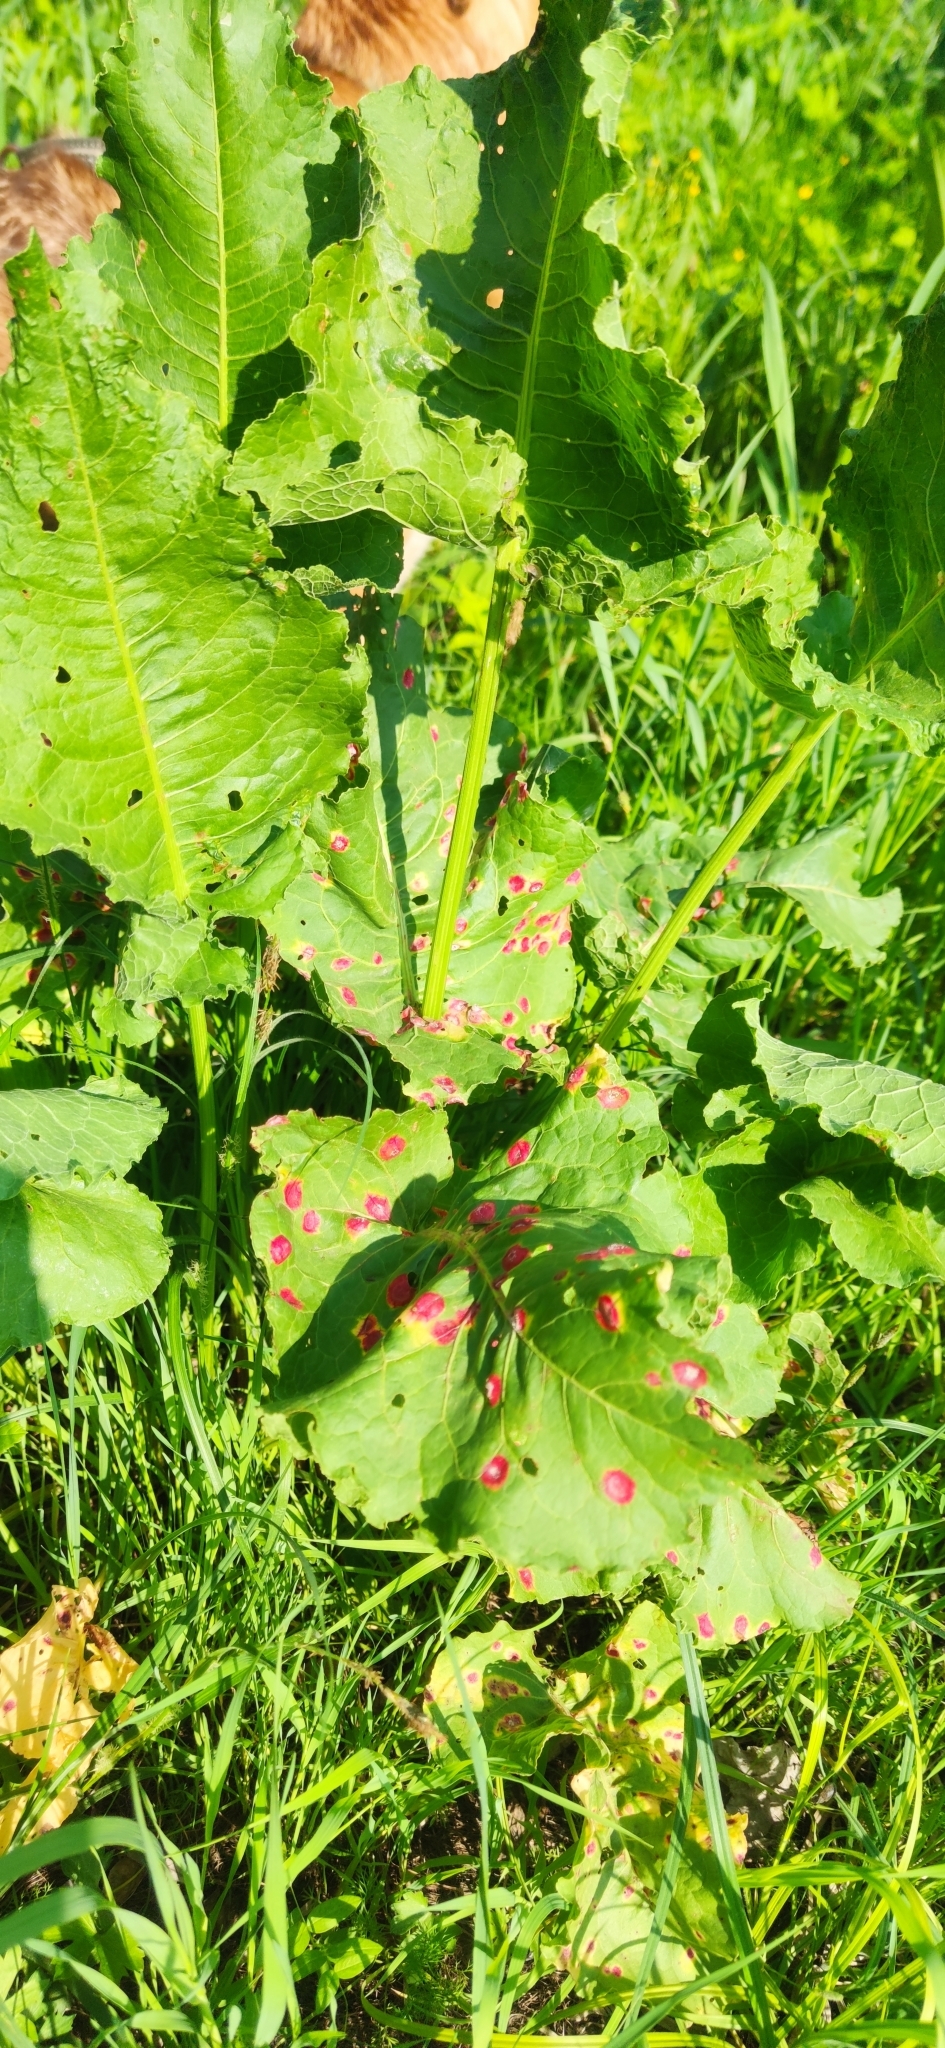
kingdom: Fungi
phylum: Basidiomycota
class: Pucciniomycetes
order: Pucciniales
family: Pucciniaceae
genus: Puccinia
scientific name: Puccinia phragmitis
